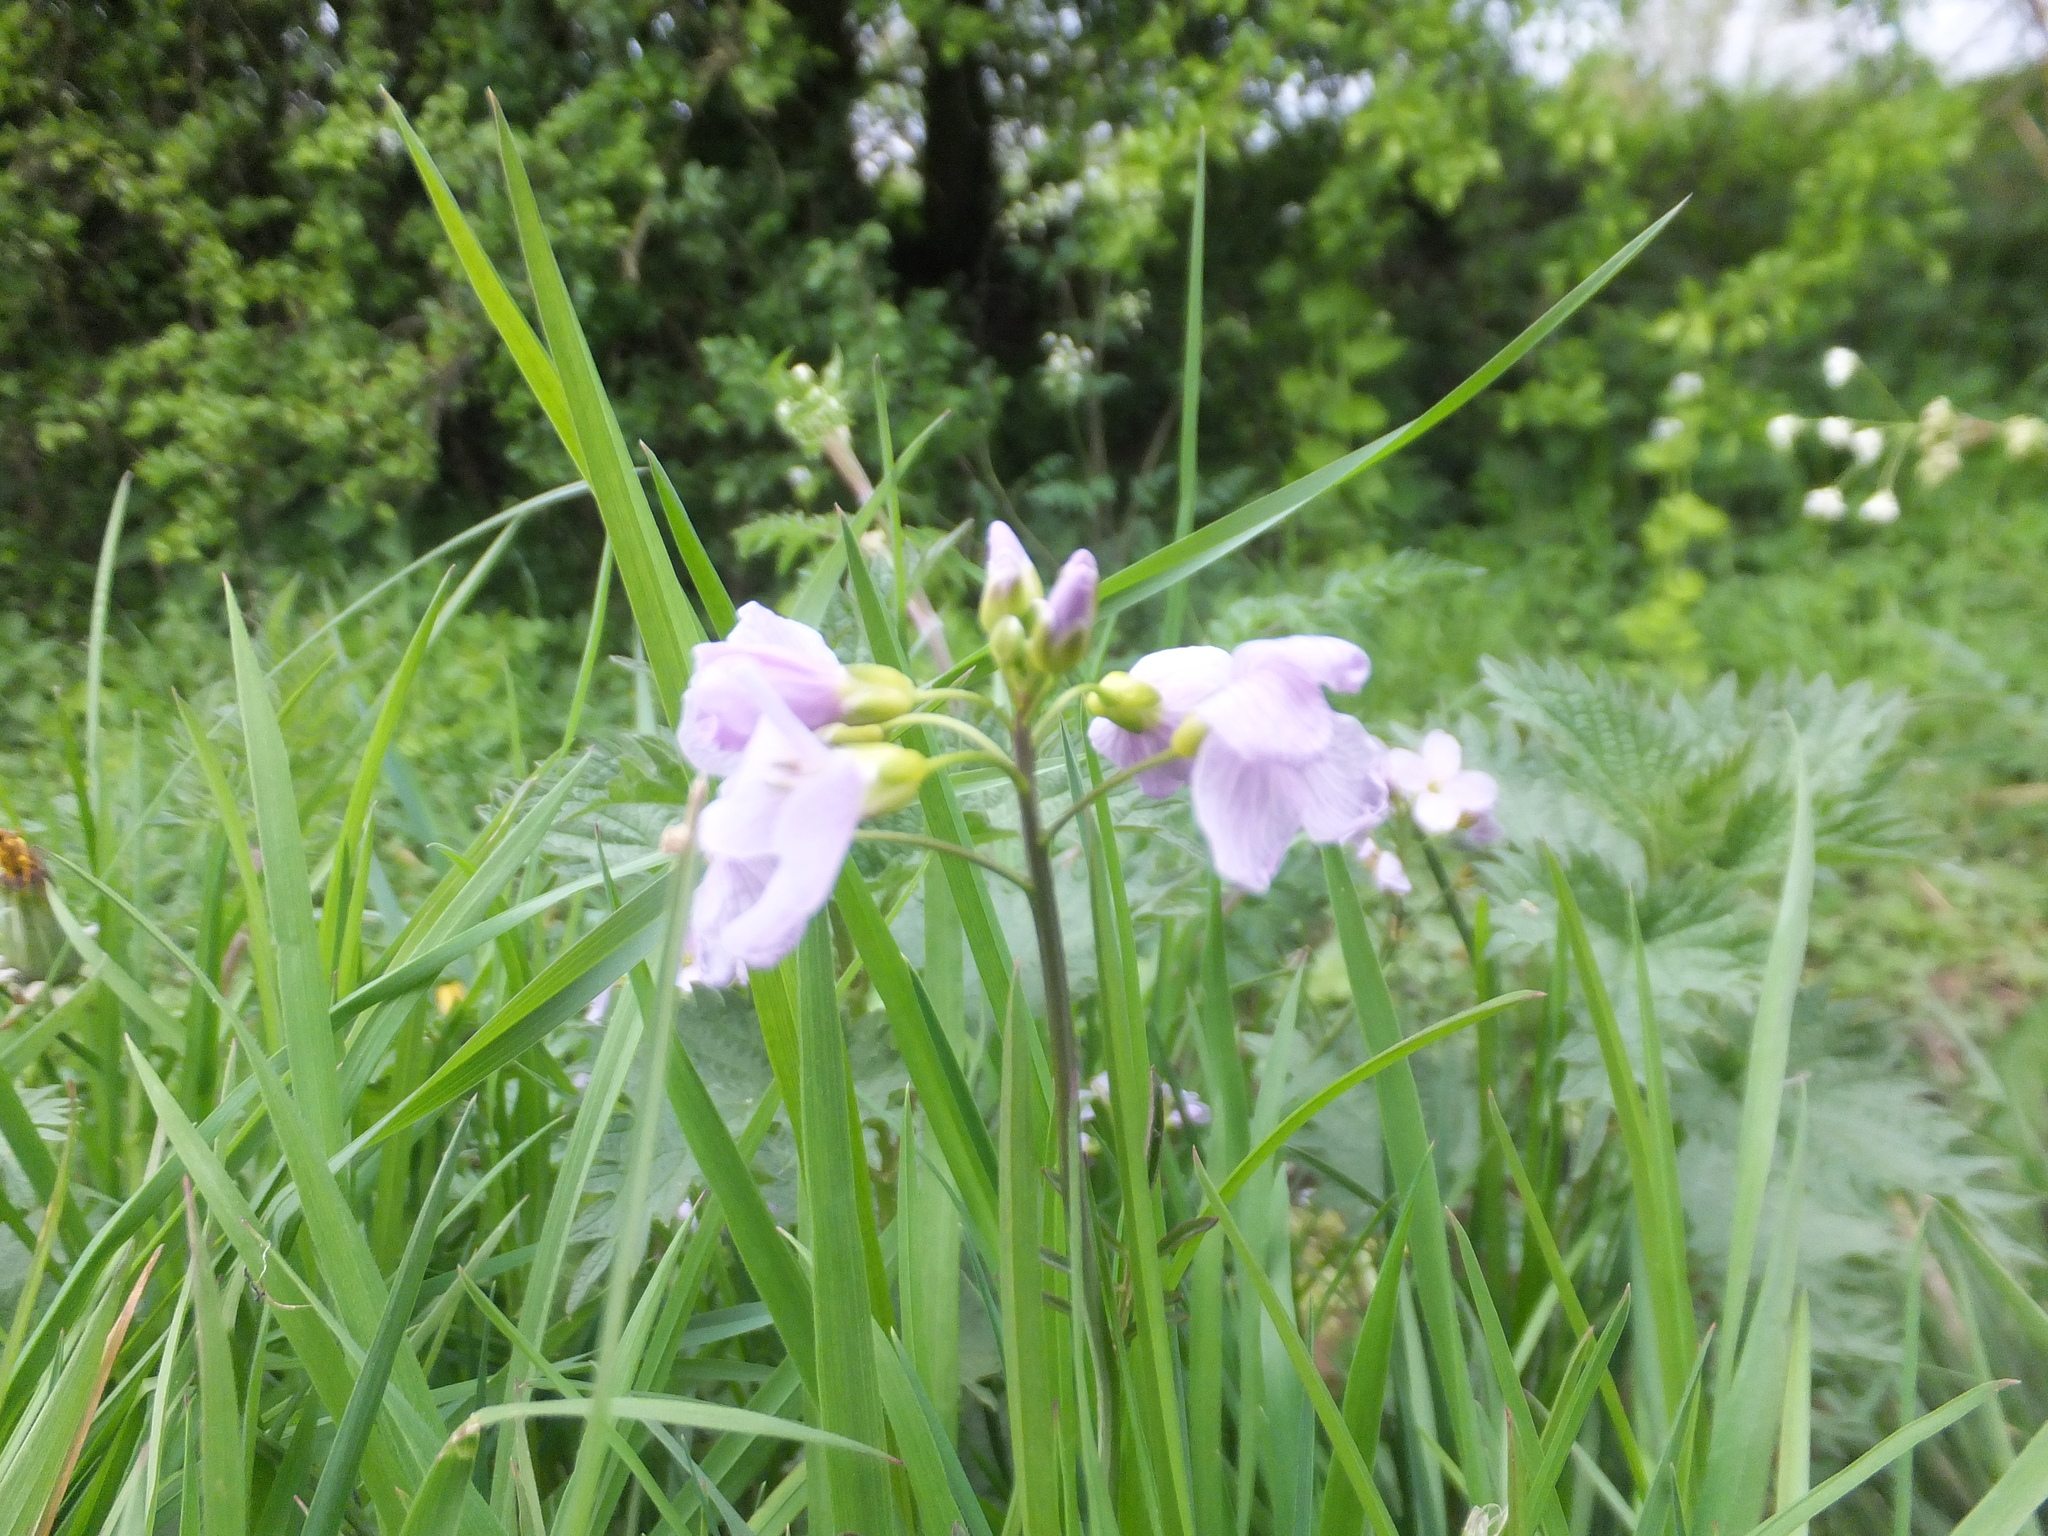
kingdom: Plantae
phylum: Tracheophyta
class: Magnoliopsida
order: Brassicales
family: Brassicaceae
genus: Cardamine
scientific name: Cardamine pratensis
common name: Cuckoo flower
